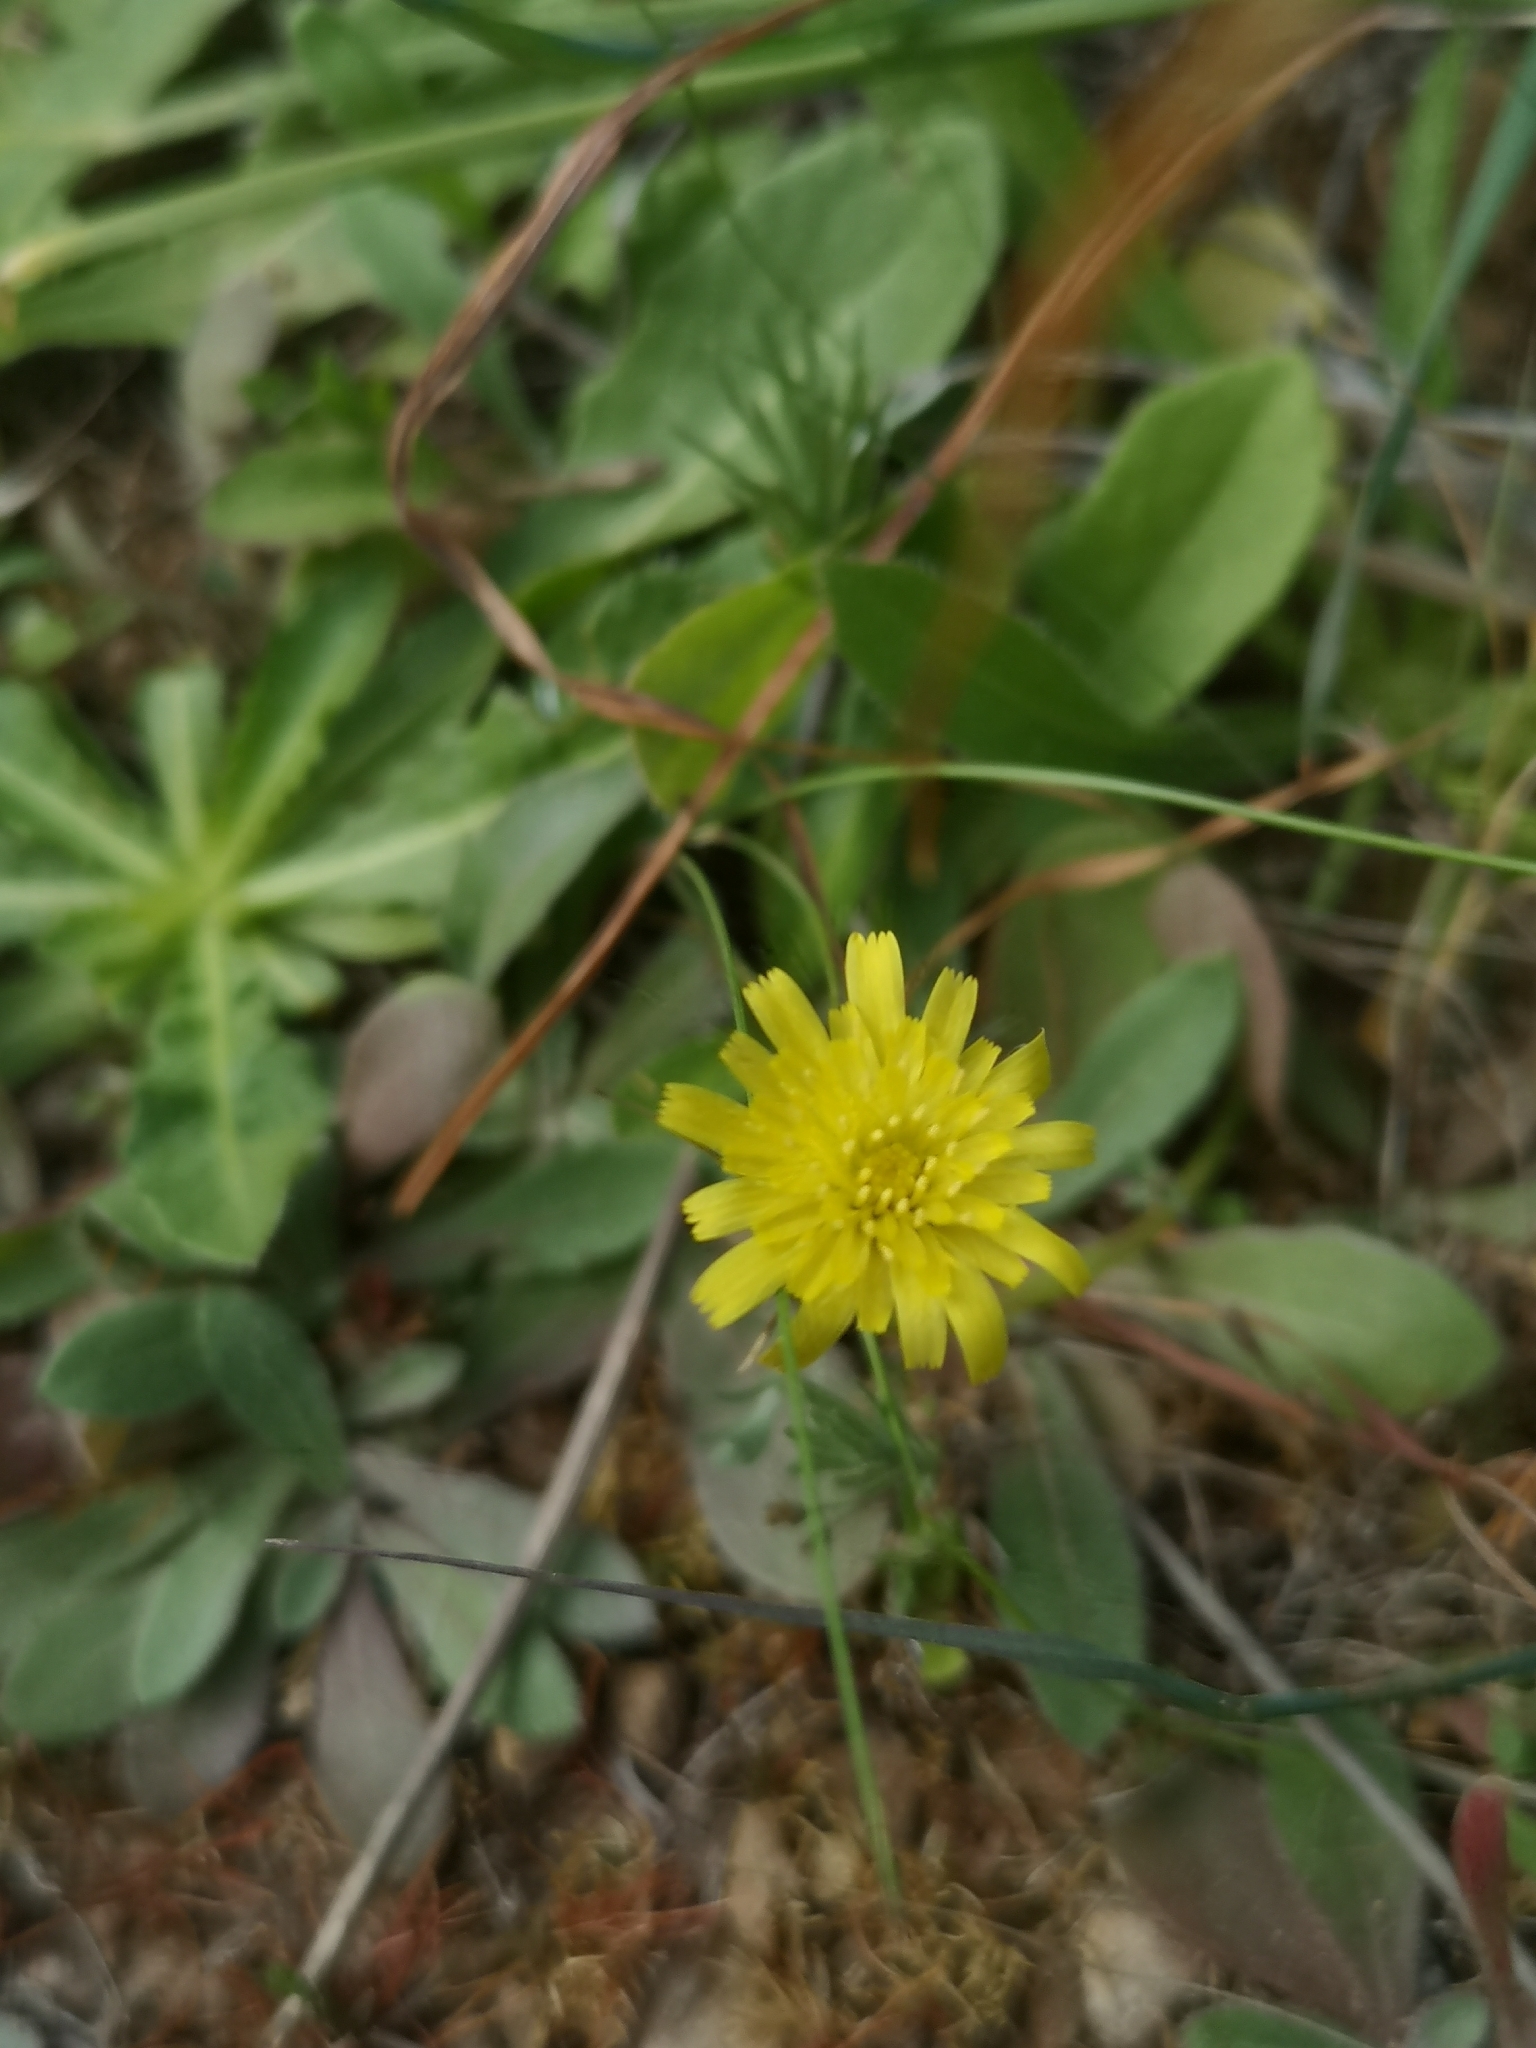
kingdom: Plantae
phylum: Tracheophyta
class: Magnoliopsida
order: Asterales
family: Asteraceae
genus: Hypochaeris
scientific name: Hypochaeris glabra
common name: Smooth catsear
